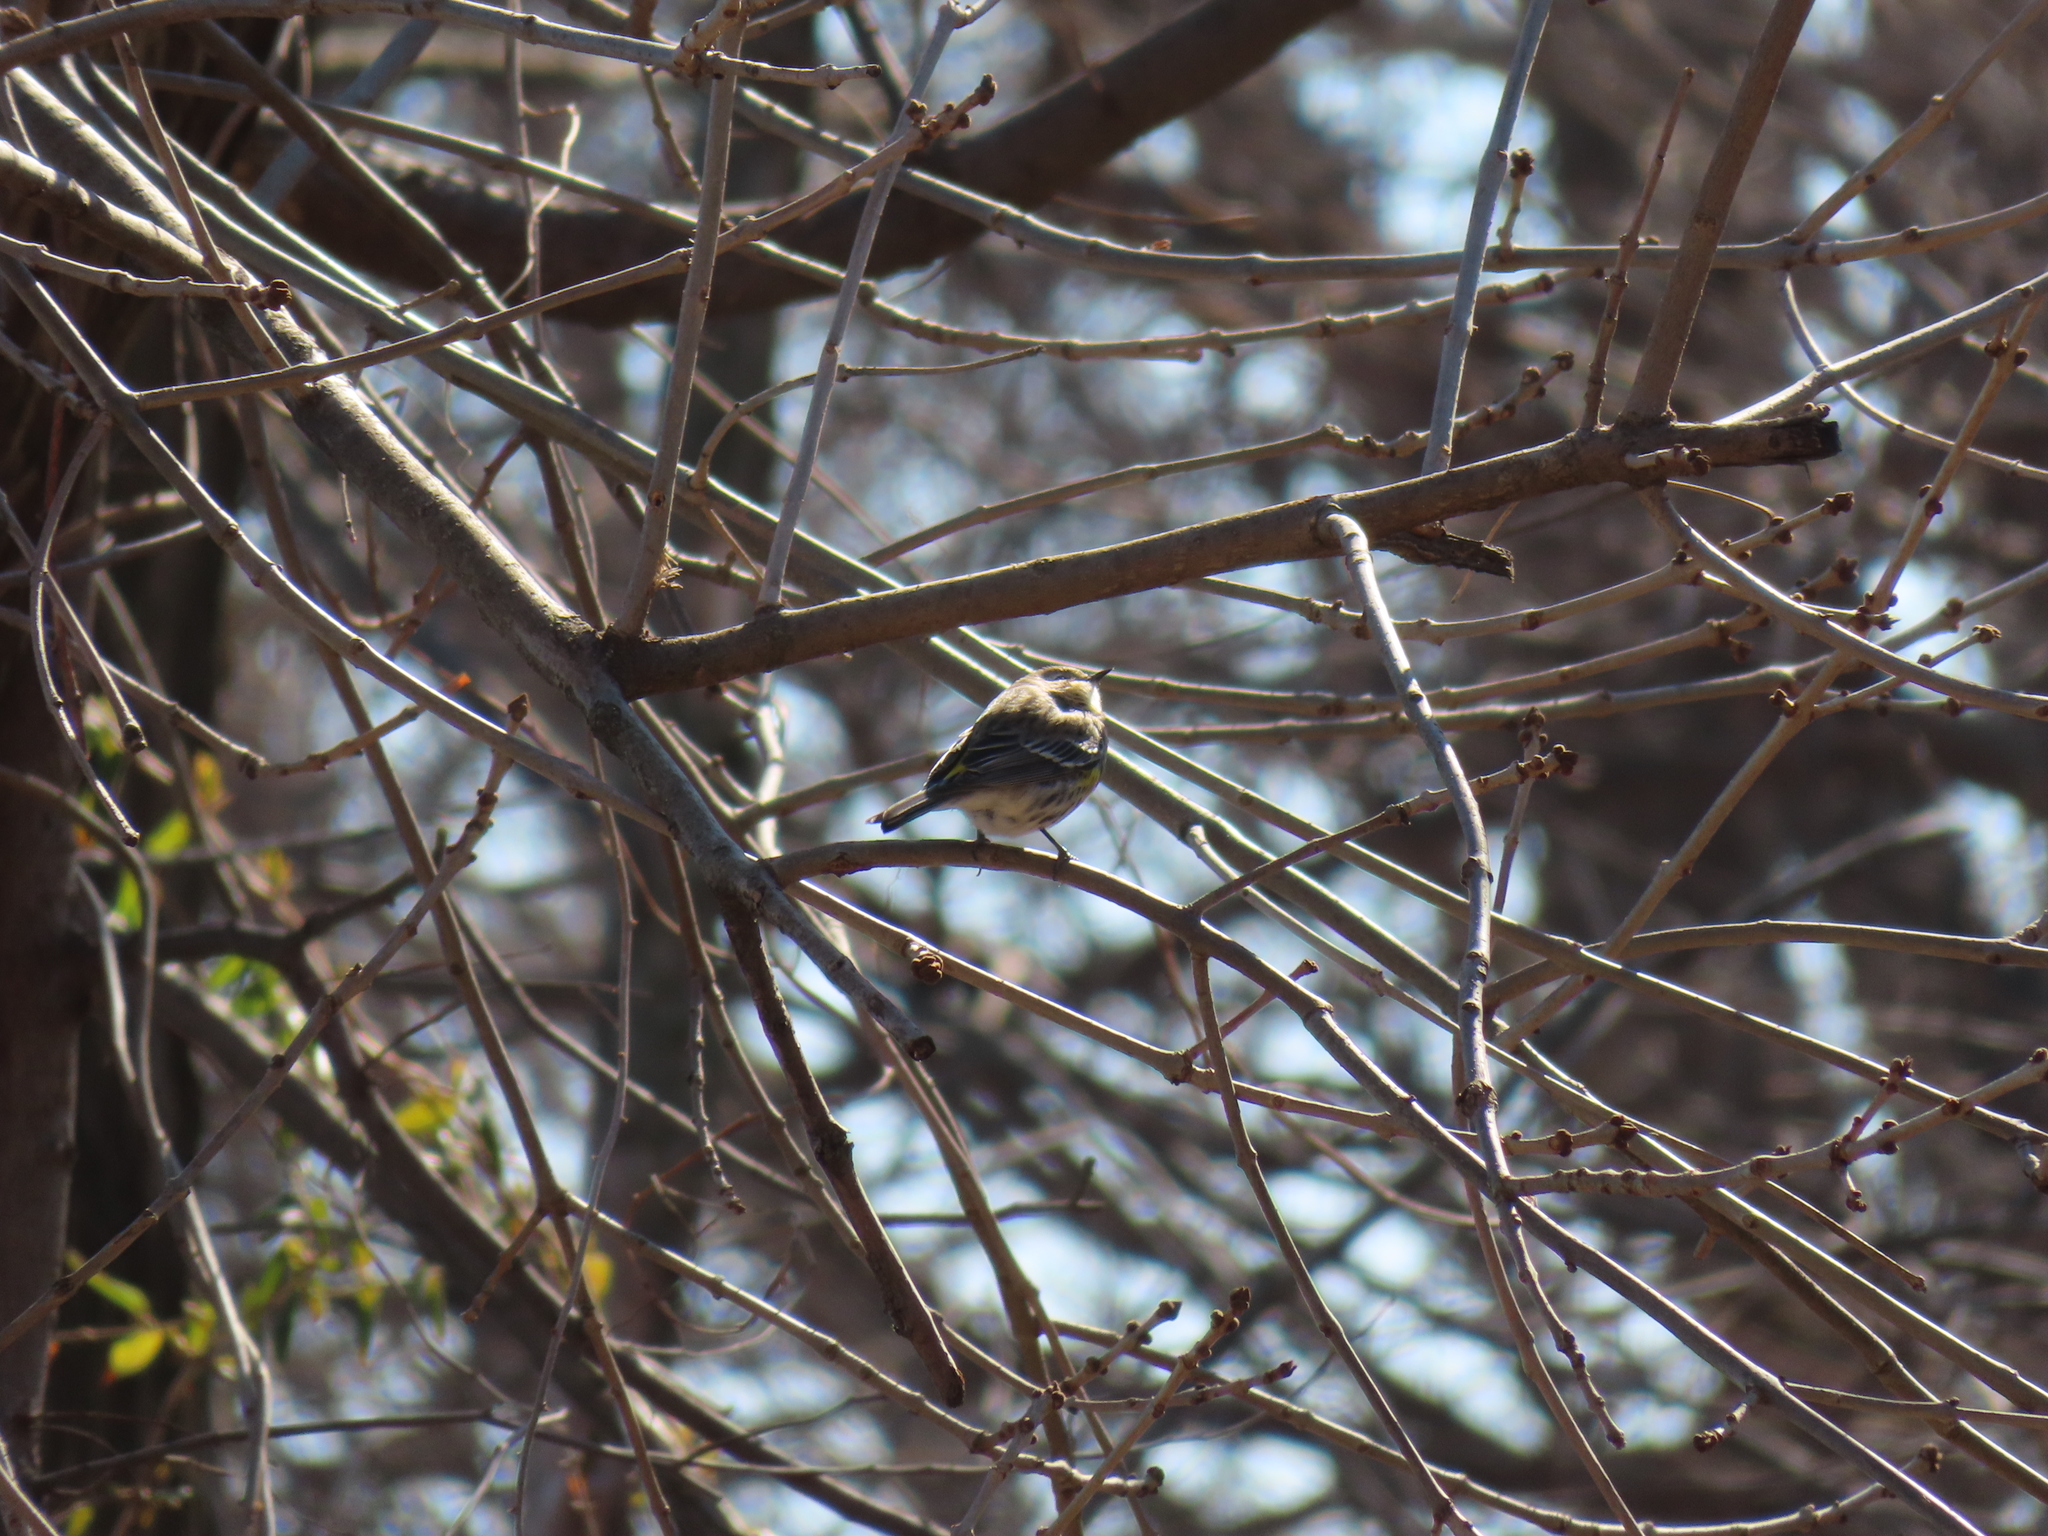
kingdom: Animalia
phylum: Chordata
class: Aves
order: Passeriformes
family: Parulidae
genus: Setophaga
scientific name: Setophaga coronata
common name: Myrtle warbler
